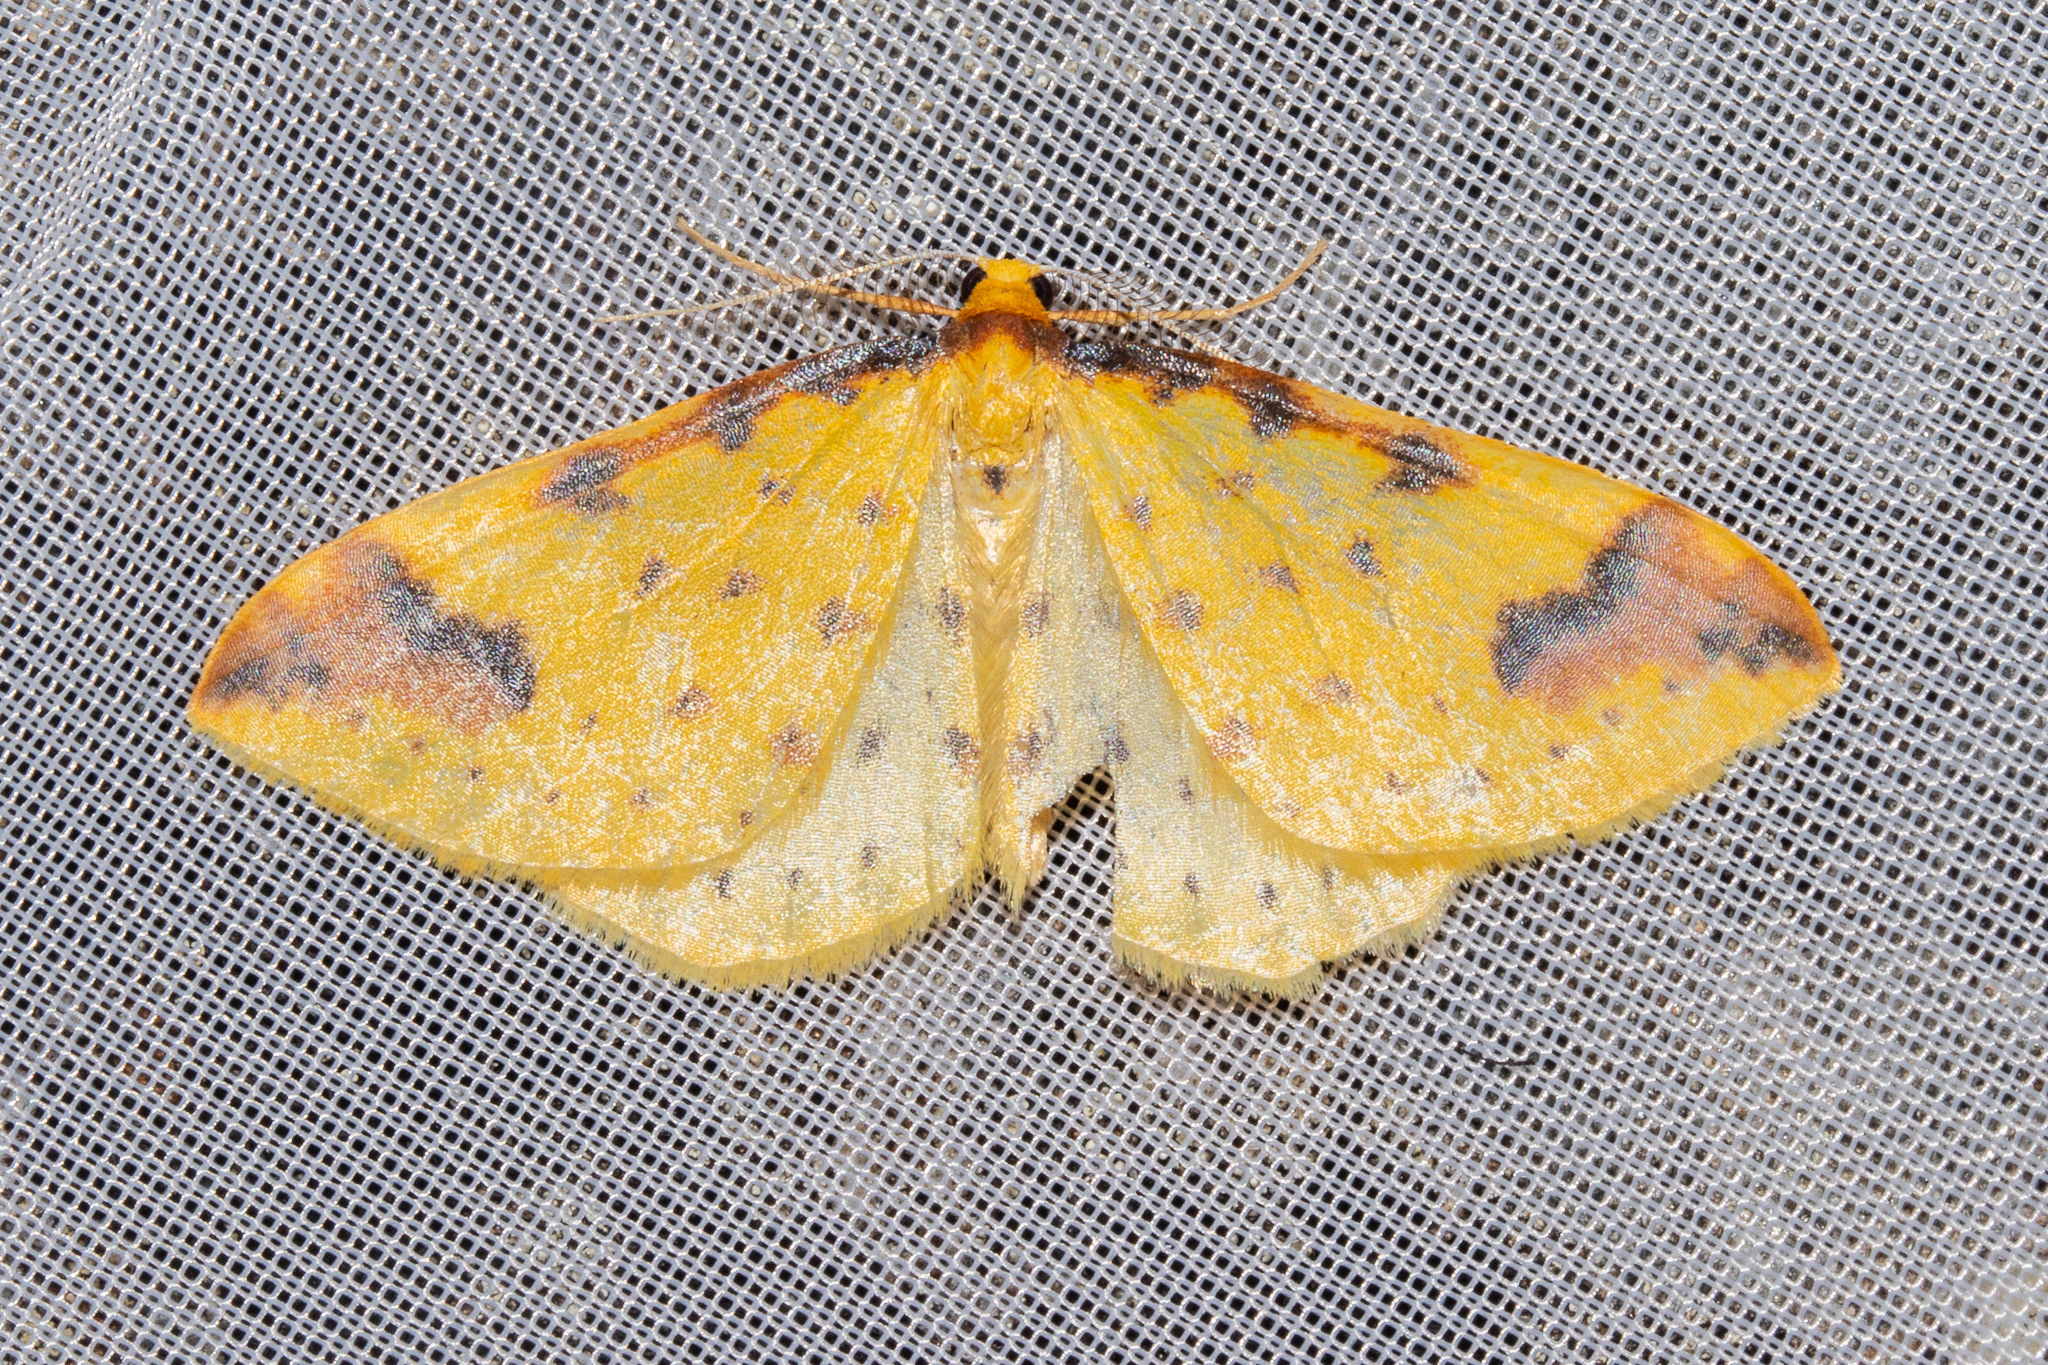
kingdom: Animalia
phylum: Arthropoda
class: Insecta
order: Lepidoptera
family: Geometridae
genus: Orthoclydon
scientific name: Orthoclydon chlorias
